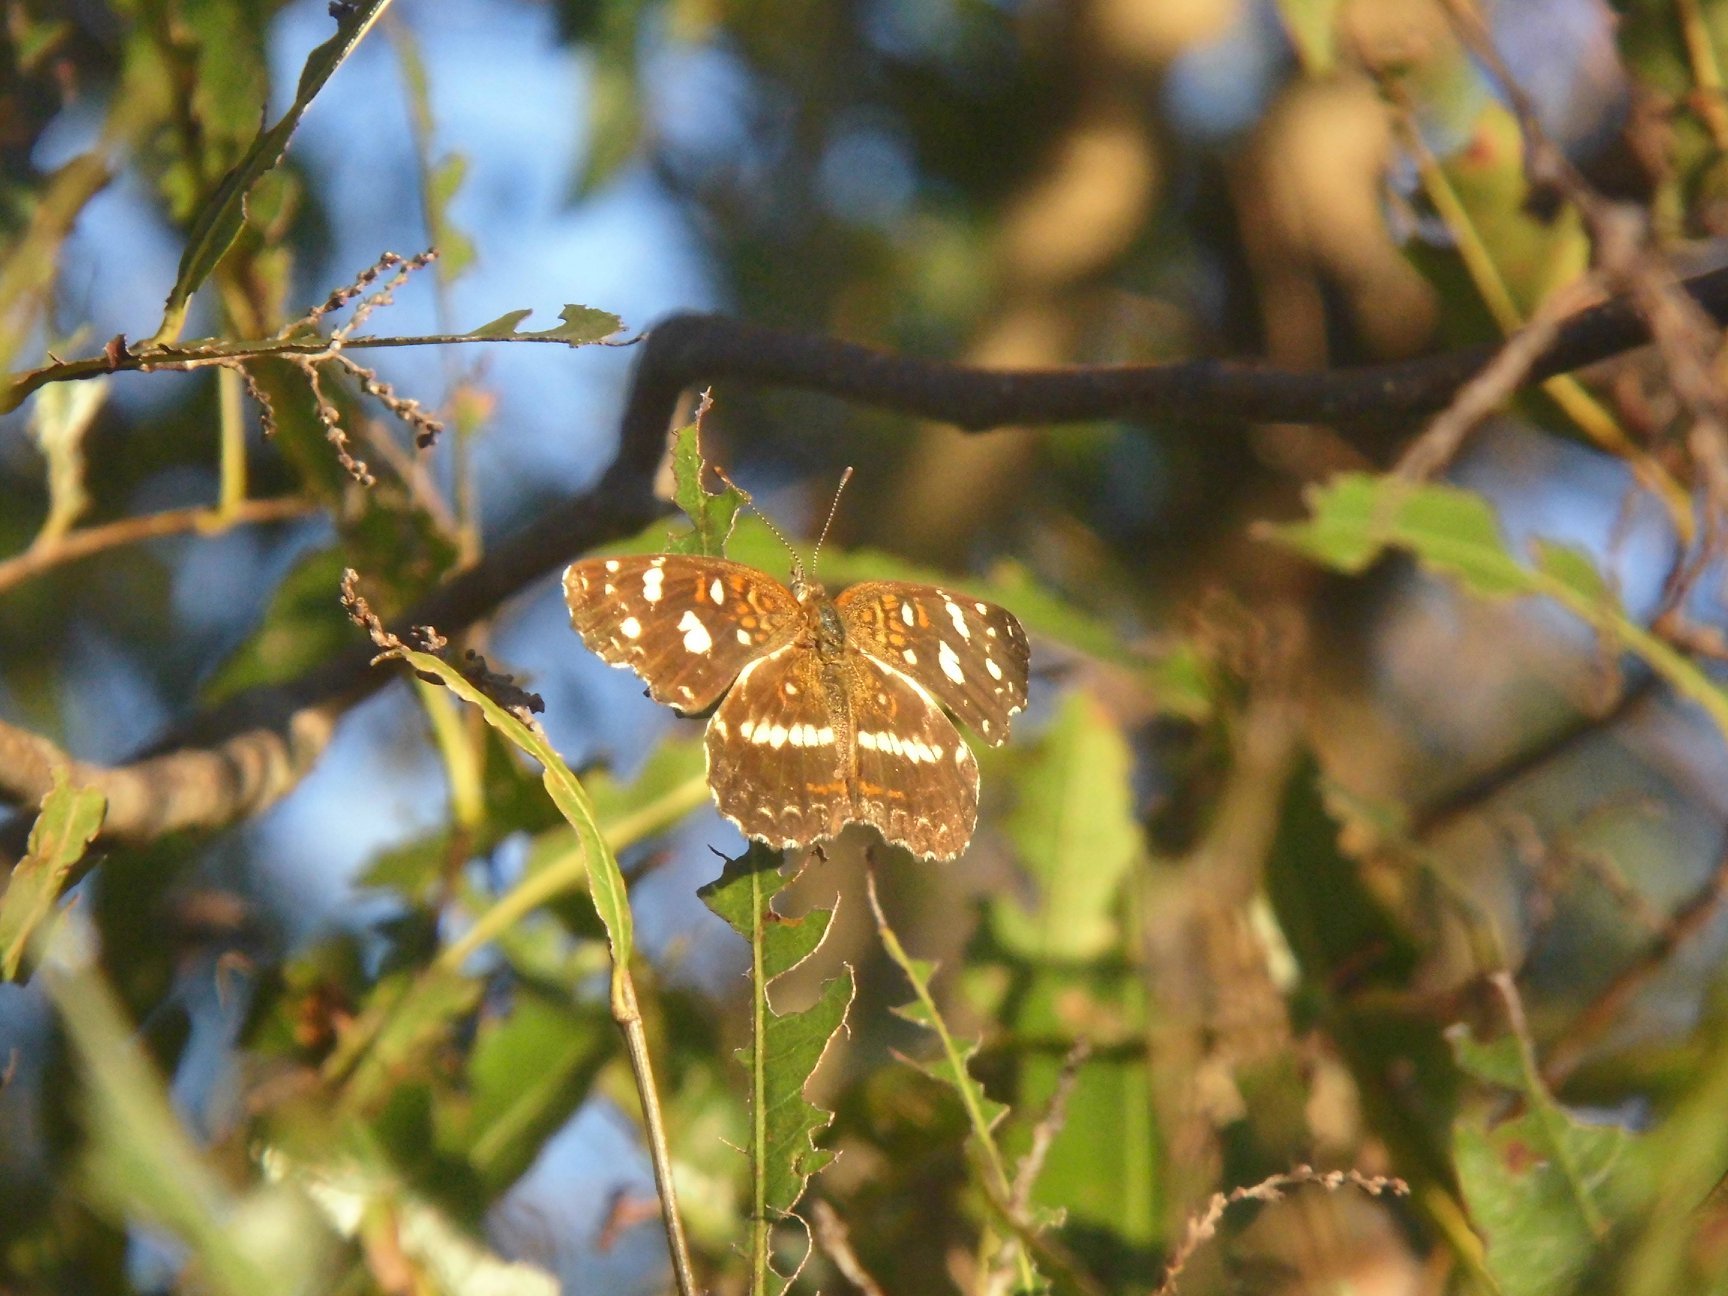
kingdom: Animalia
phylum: Arthropoda
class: Insecta
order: Lepidoptera
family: Nymphalidae
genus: Ortilia
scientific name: Ortilia ithra
